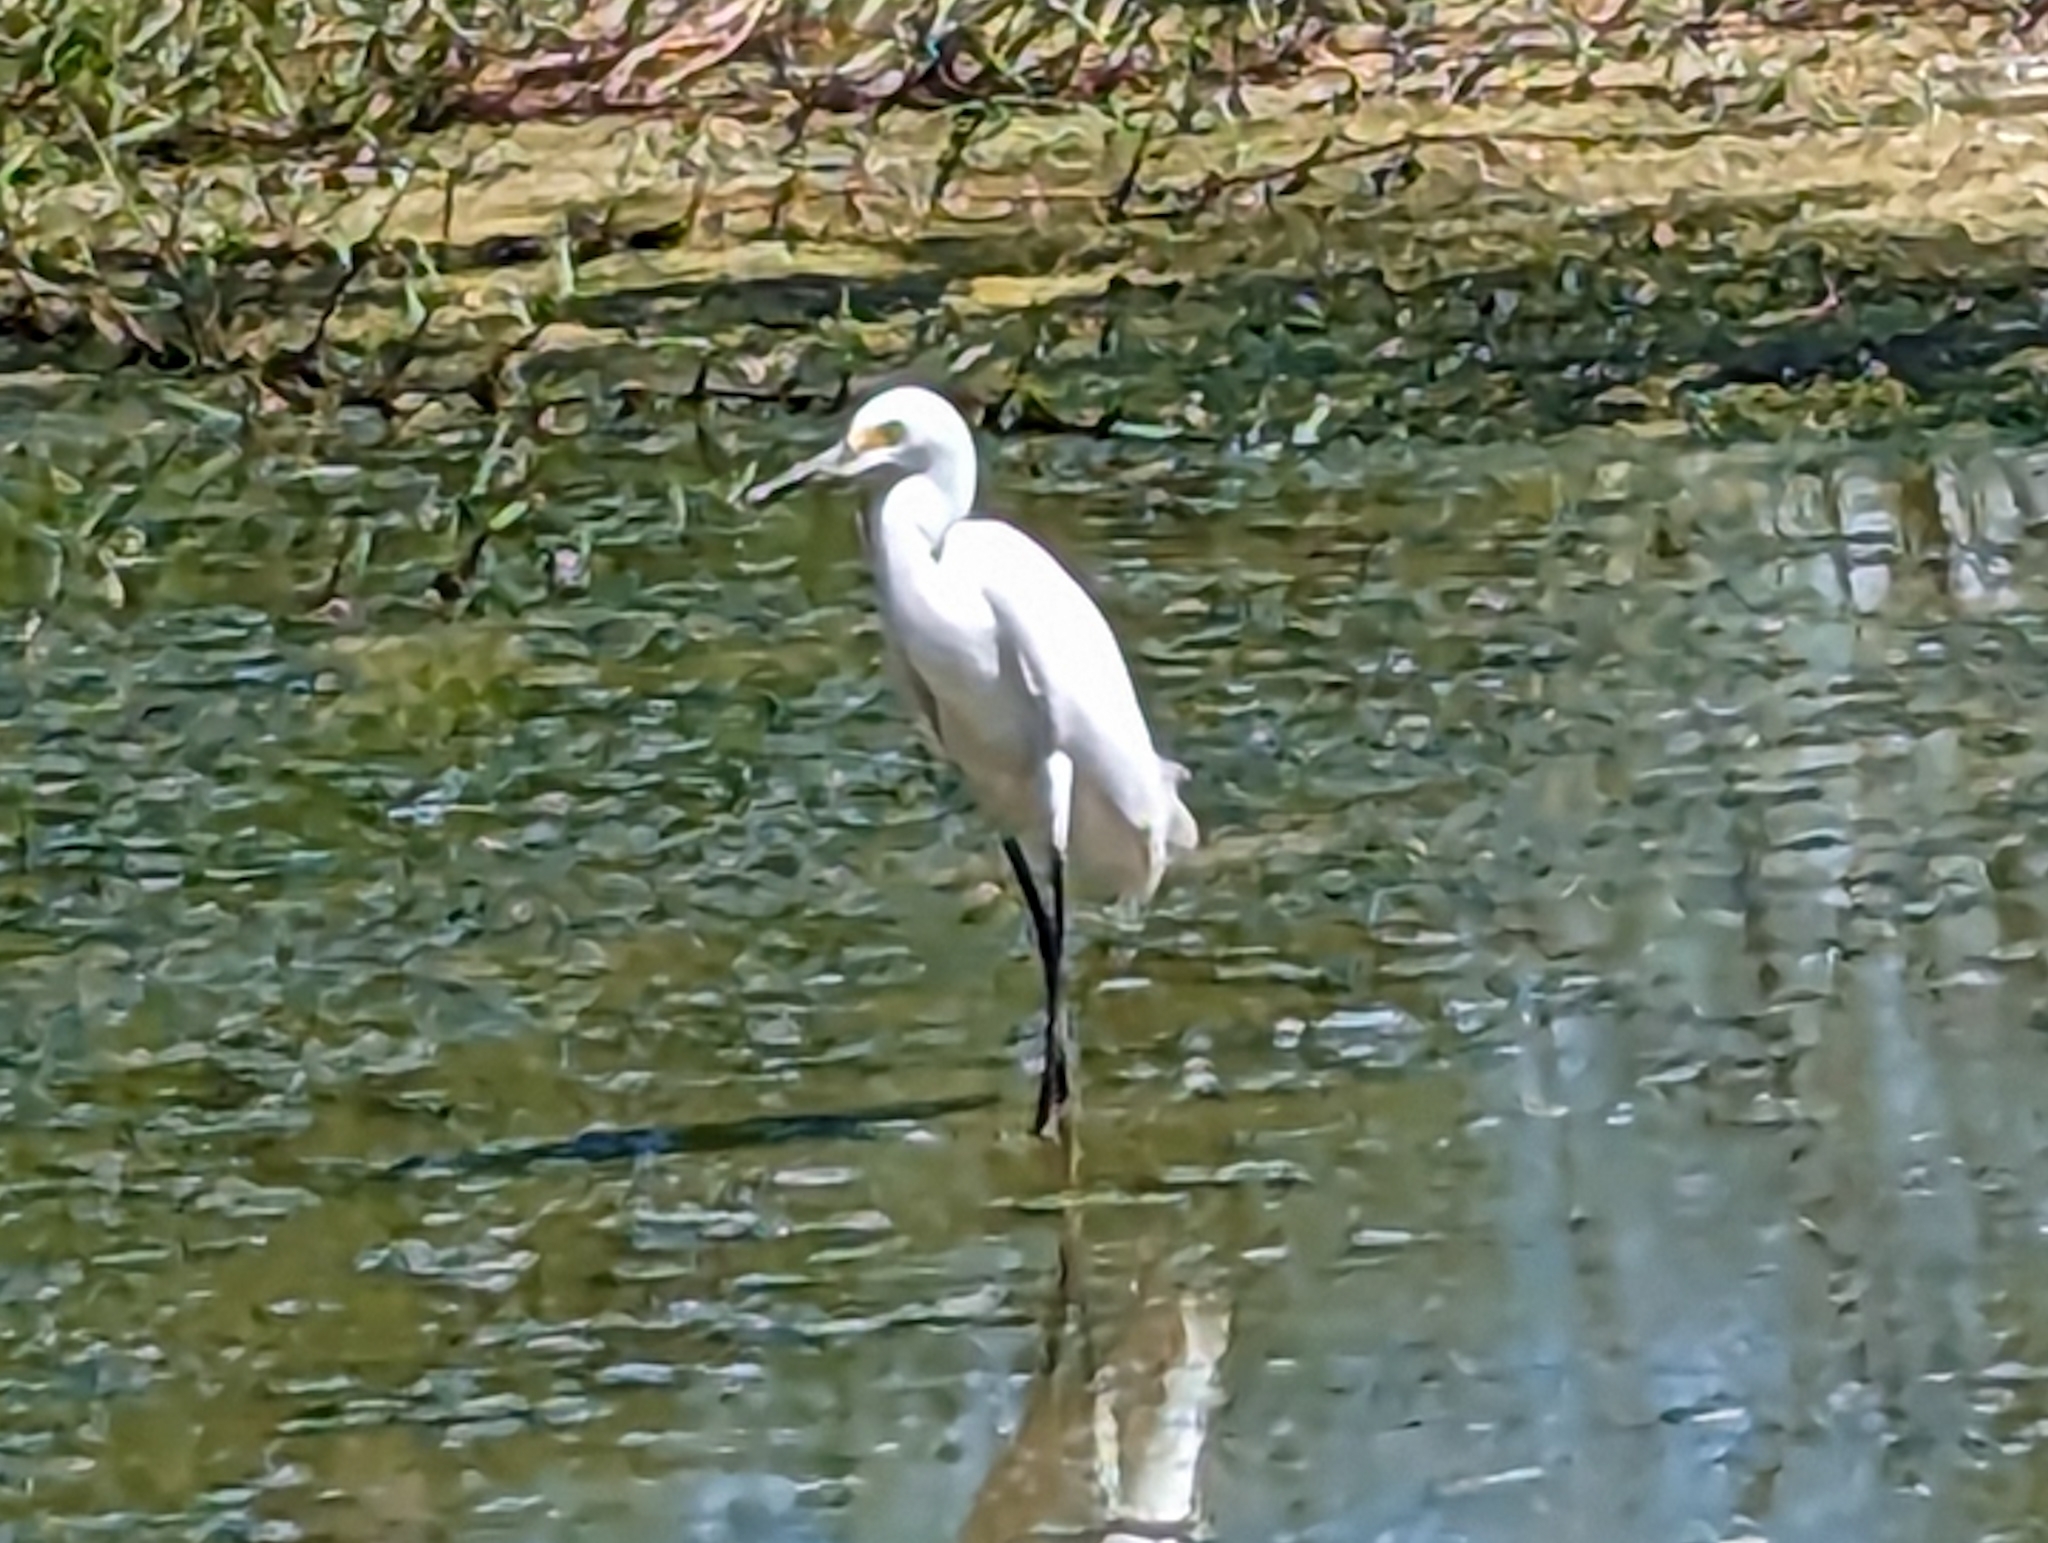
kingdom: Animalia
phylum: Chordata
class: Aves
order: Pelecaniformes
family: Ardeidae
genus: Egretta
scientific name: Egretta thula
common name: Snowy egret
